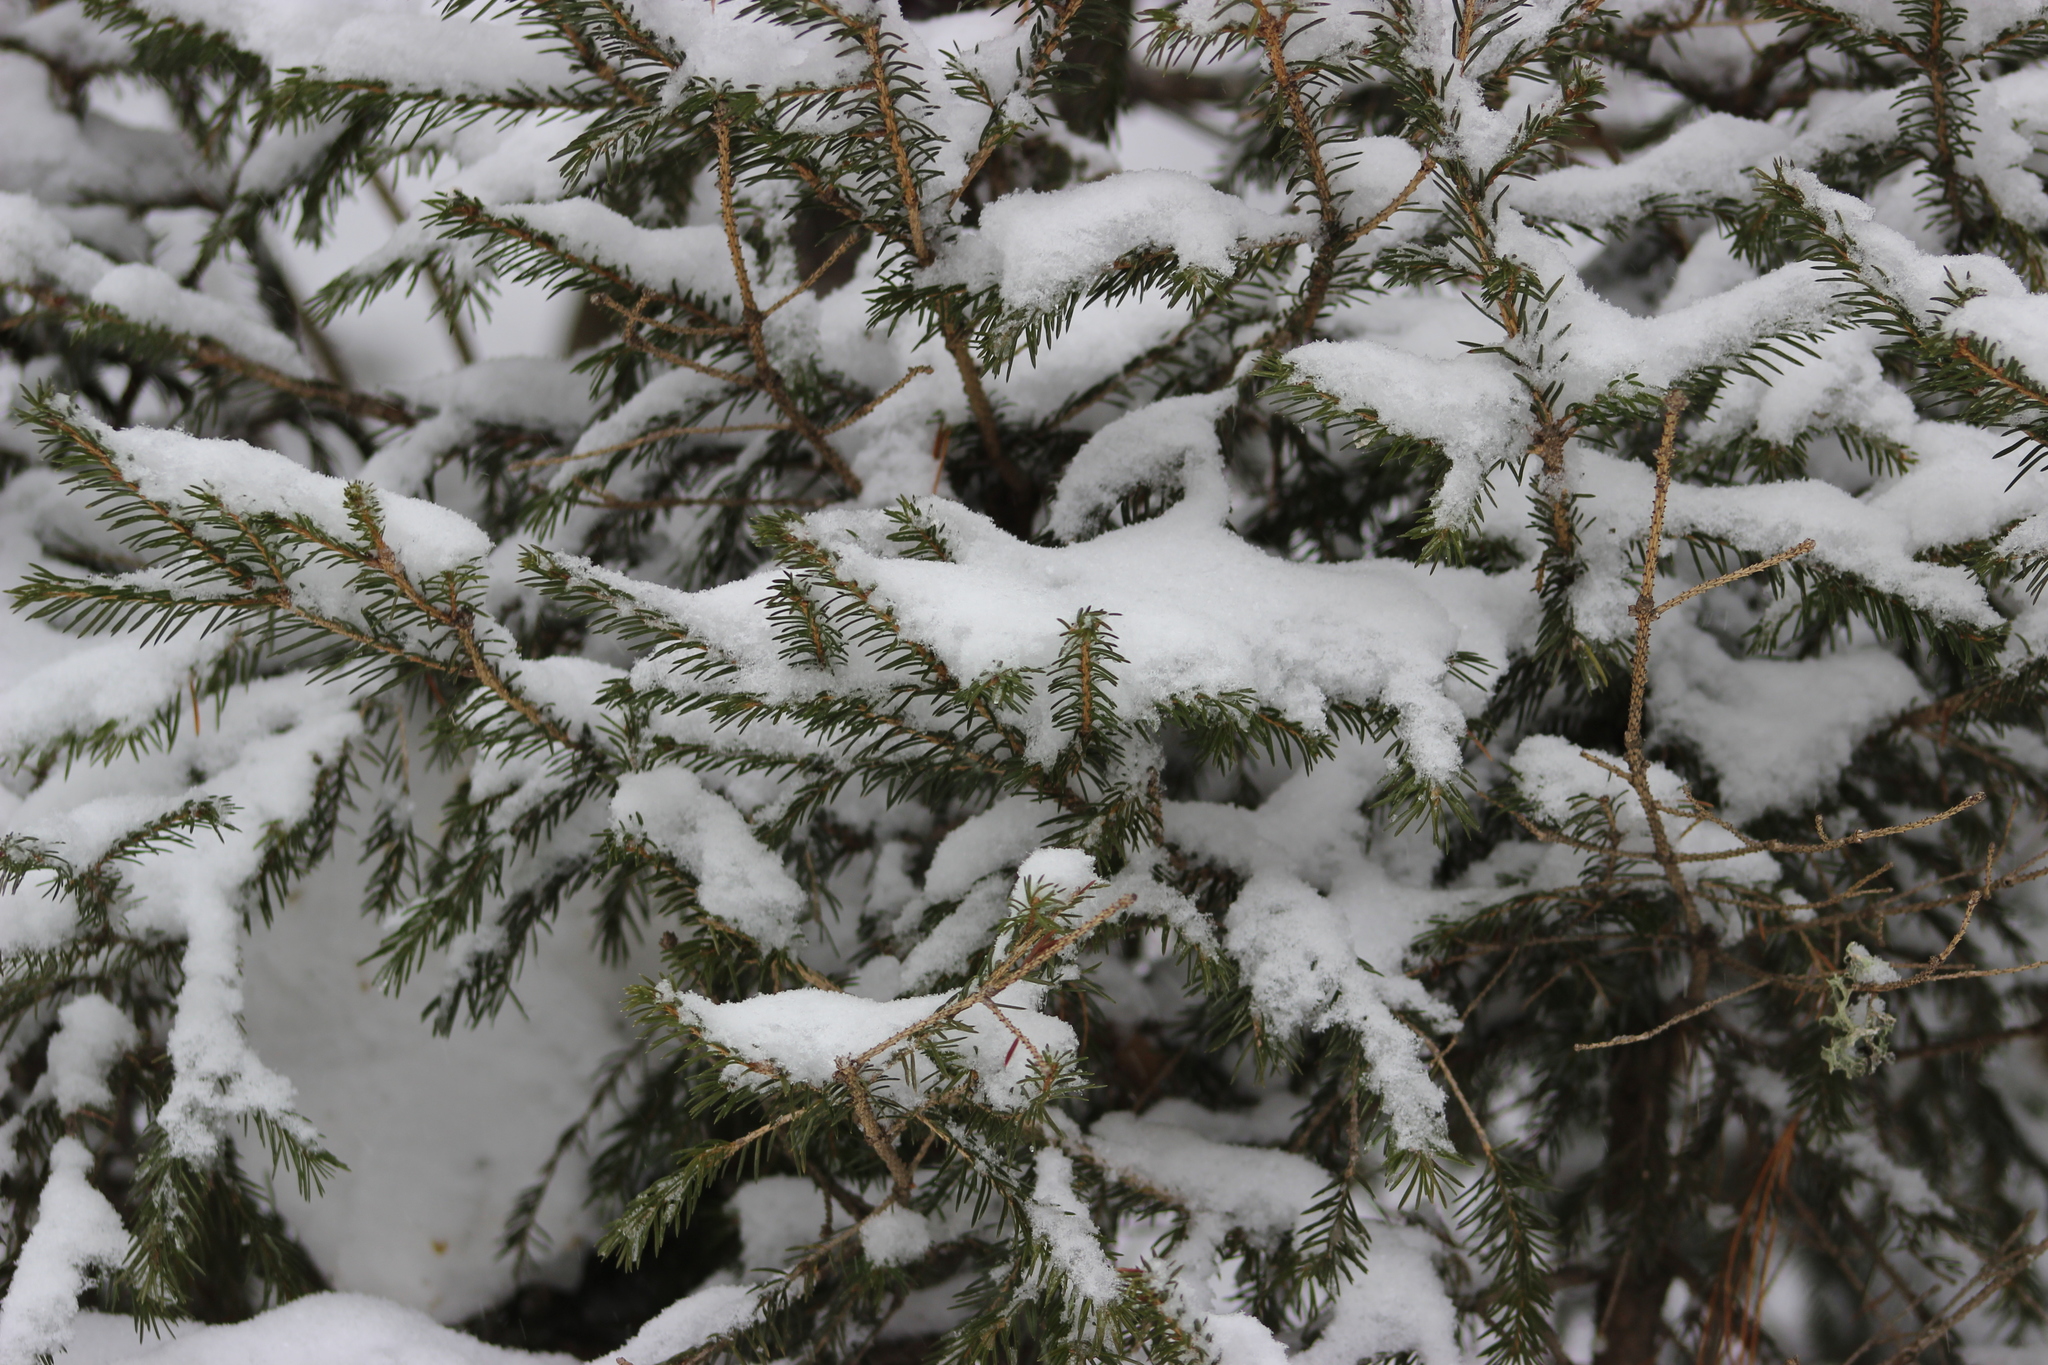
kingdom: Plantae
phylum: Tracheophyta
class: Pinopsida
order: Pinales
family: Pinaceae
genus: Picea
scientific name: Picea obovata
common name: Siberian spruce
